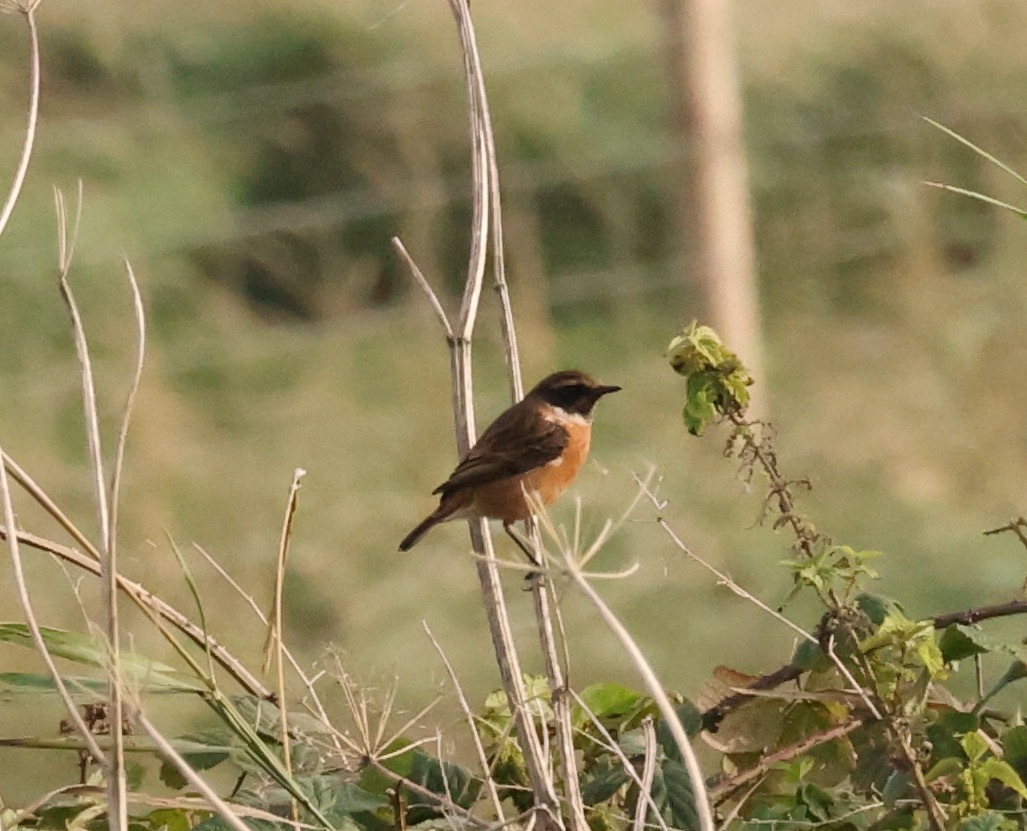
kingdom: Animalia
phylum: Chordata
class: Aves
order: Passeriformes
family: Muscicapidae
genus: Saxicola
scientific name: Saxicola rubicola
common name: European stonechat
